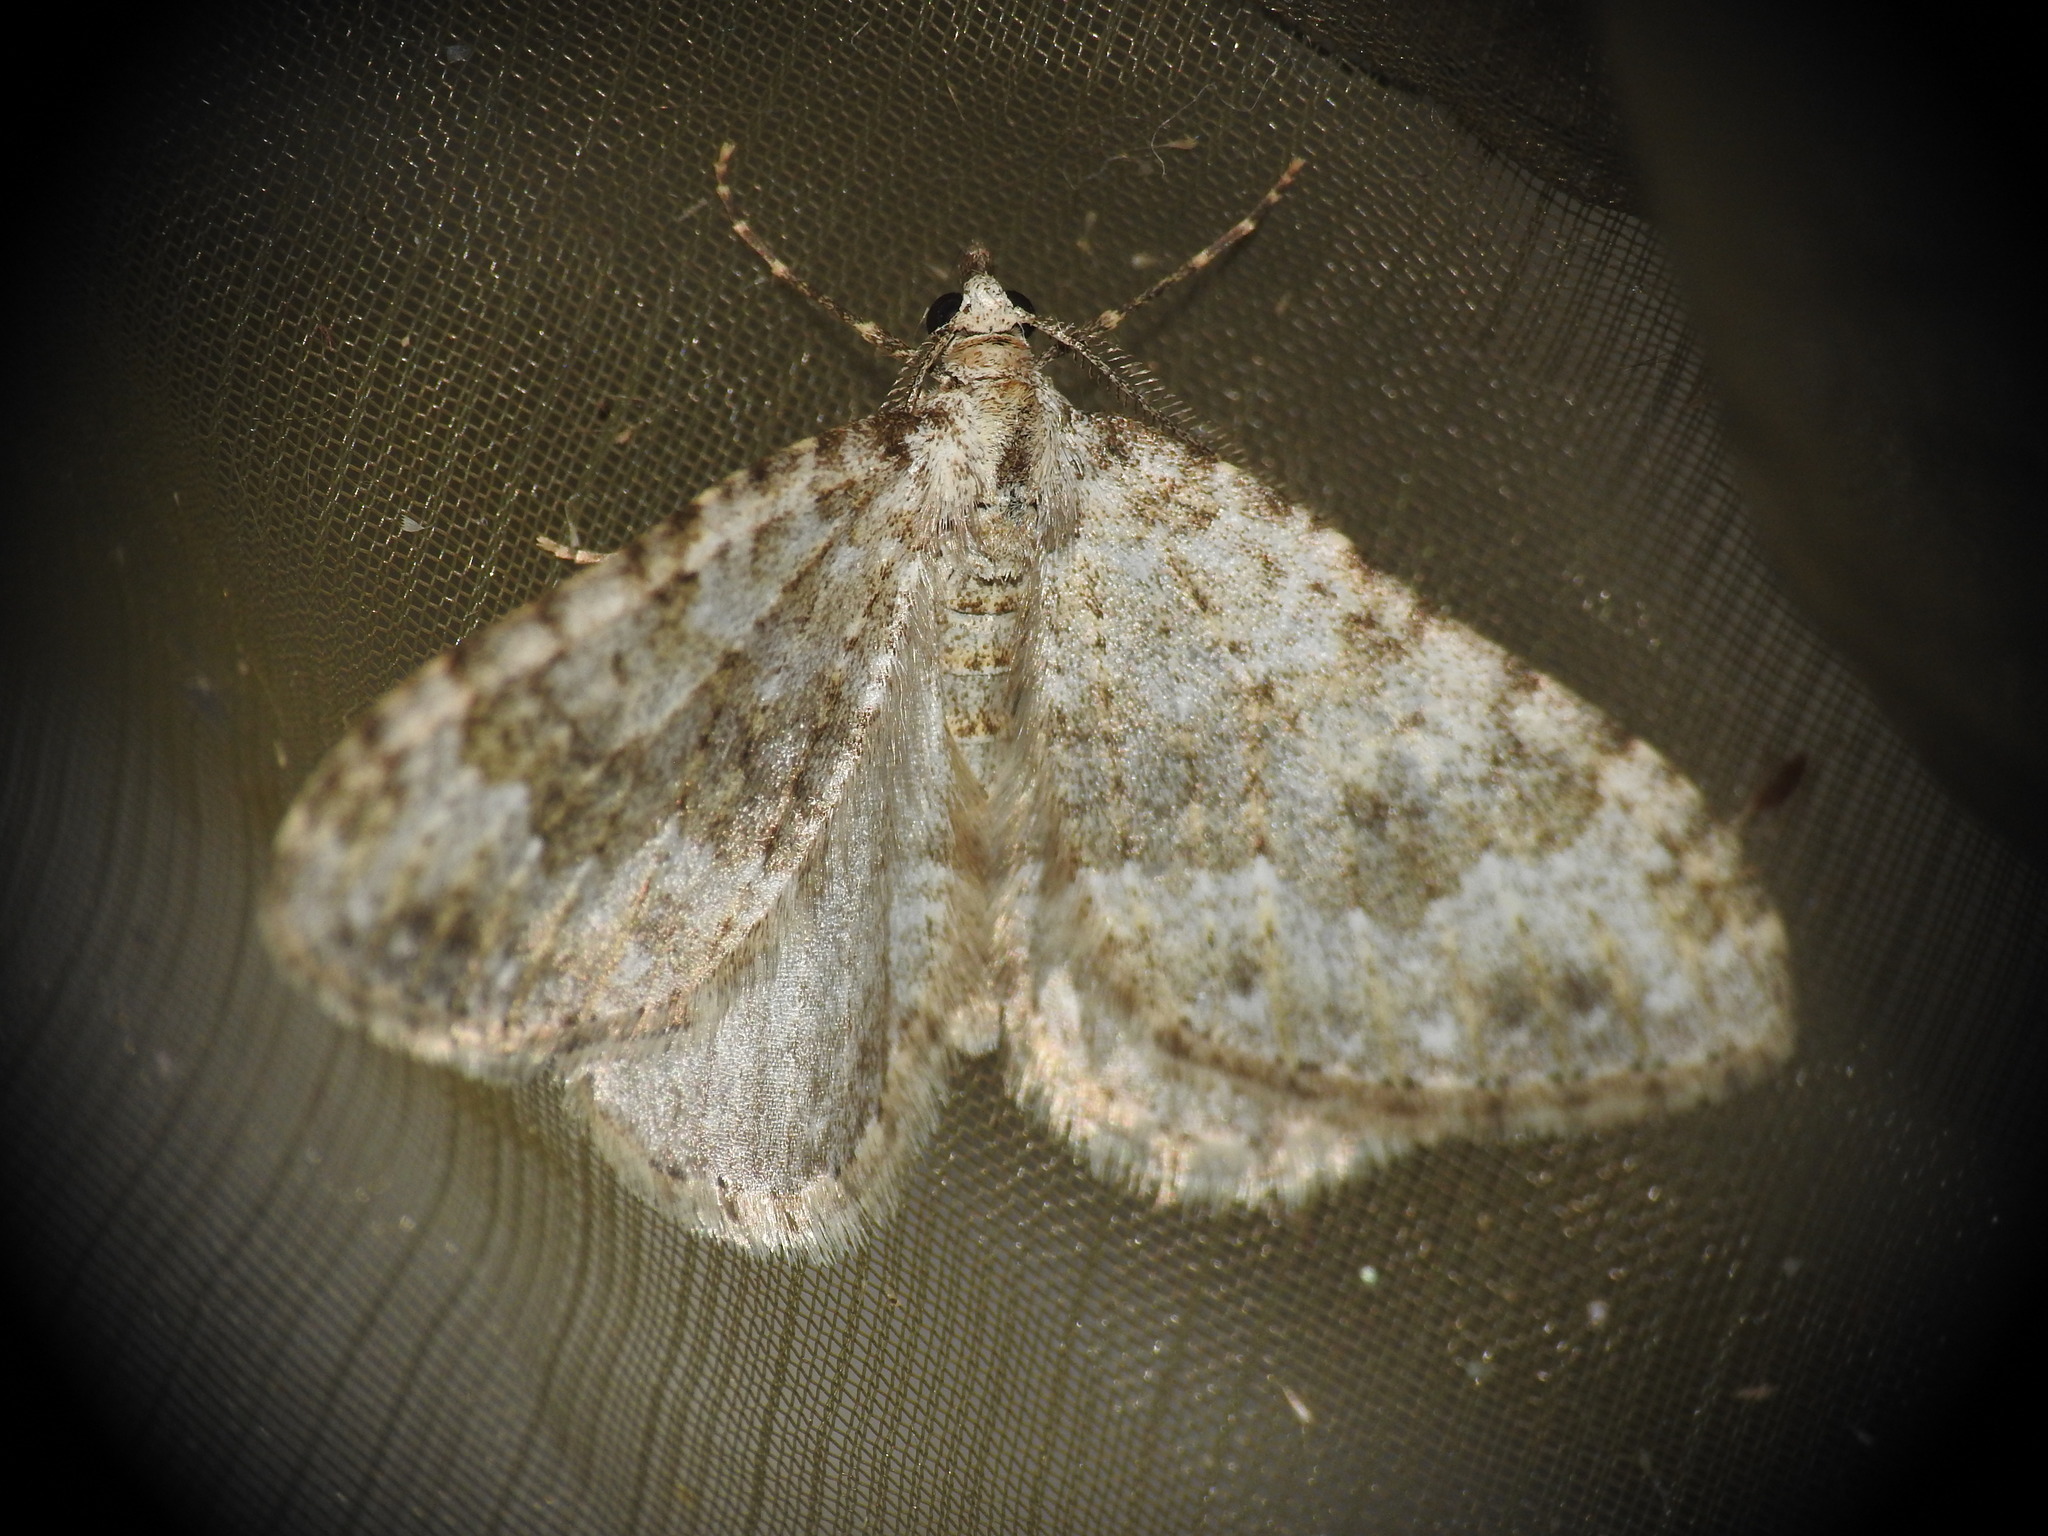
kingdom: Animalia
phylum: Arthropoda
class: Insecta
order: Lepidoptera
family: Geometridae
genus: Nebula
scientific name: Nebula salicata
